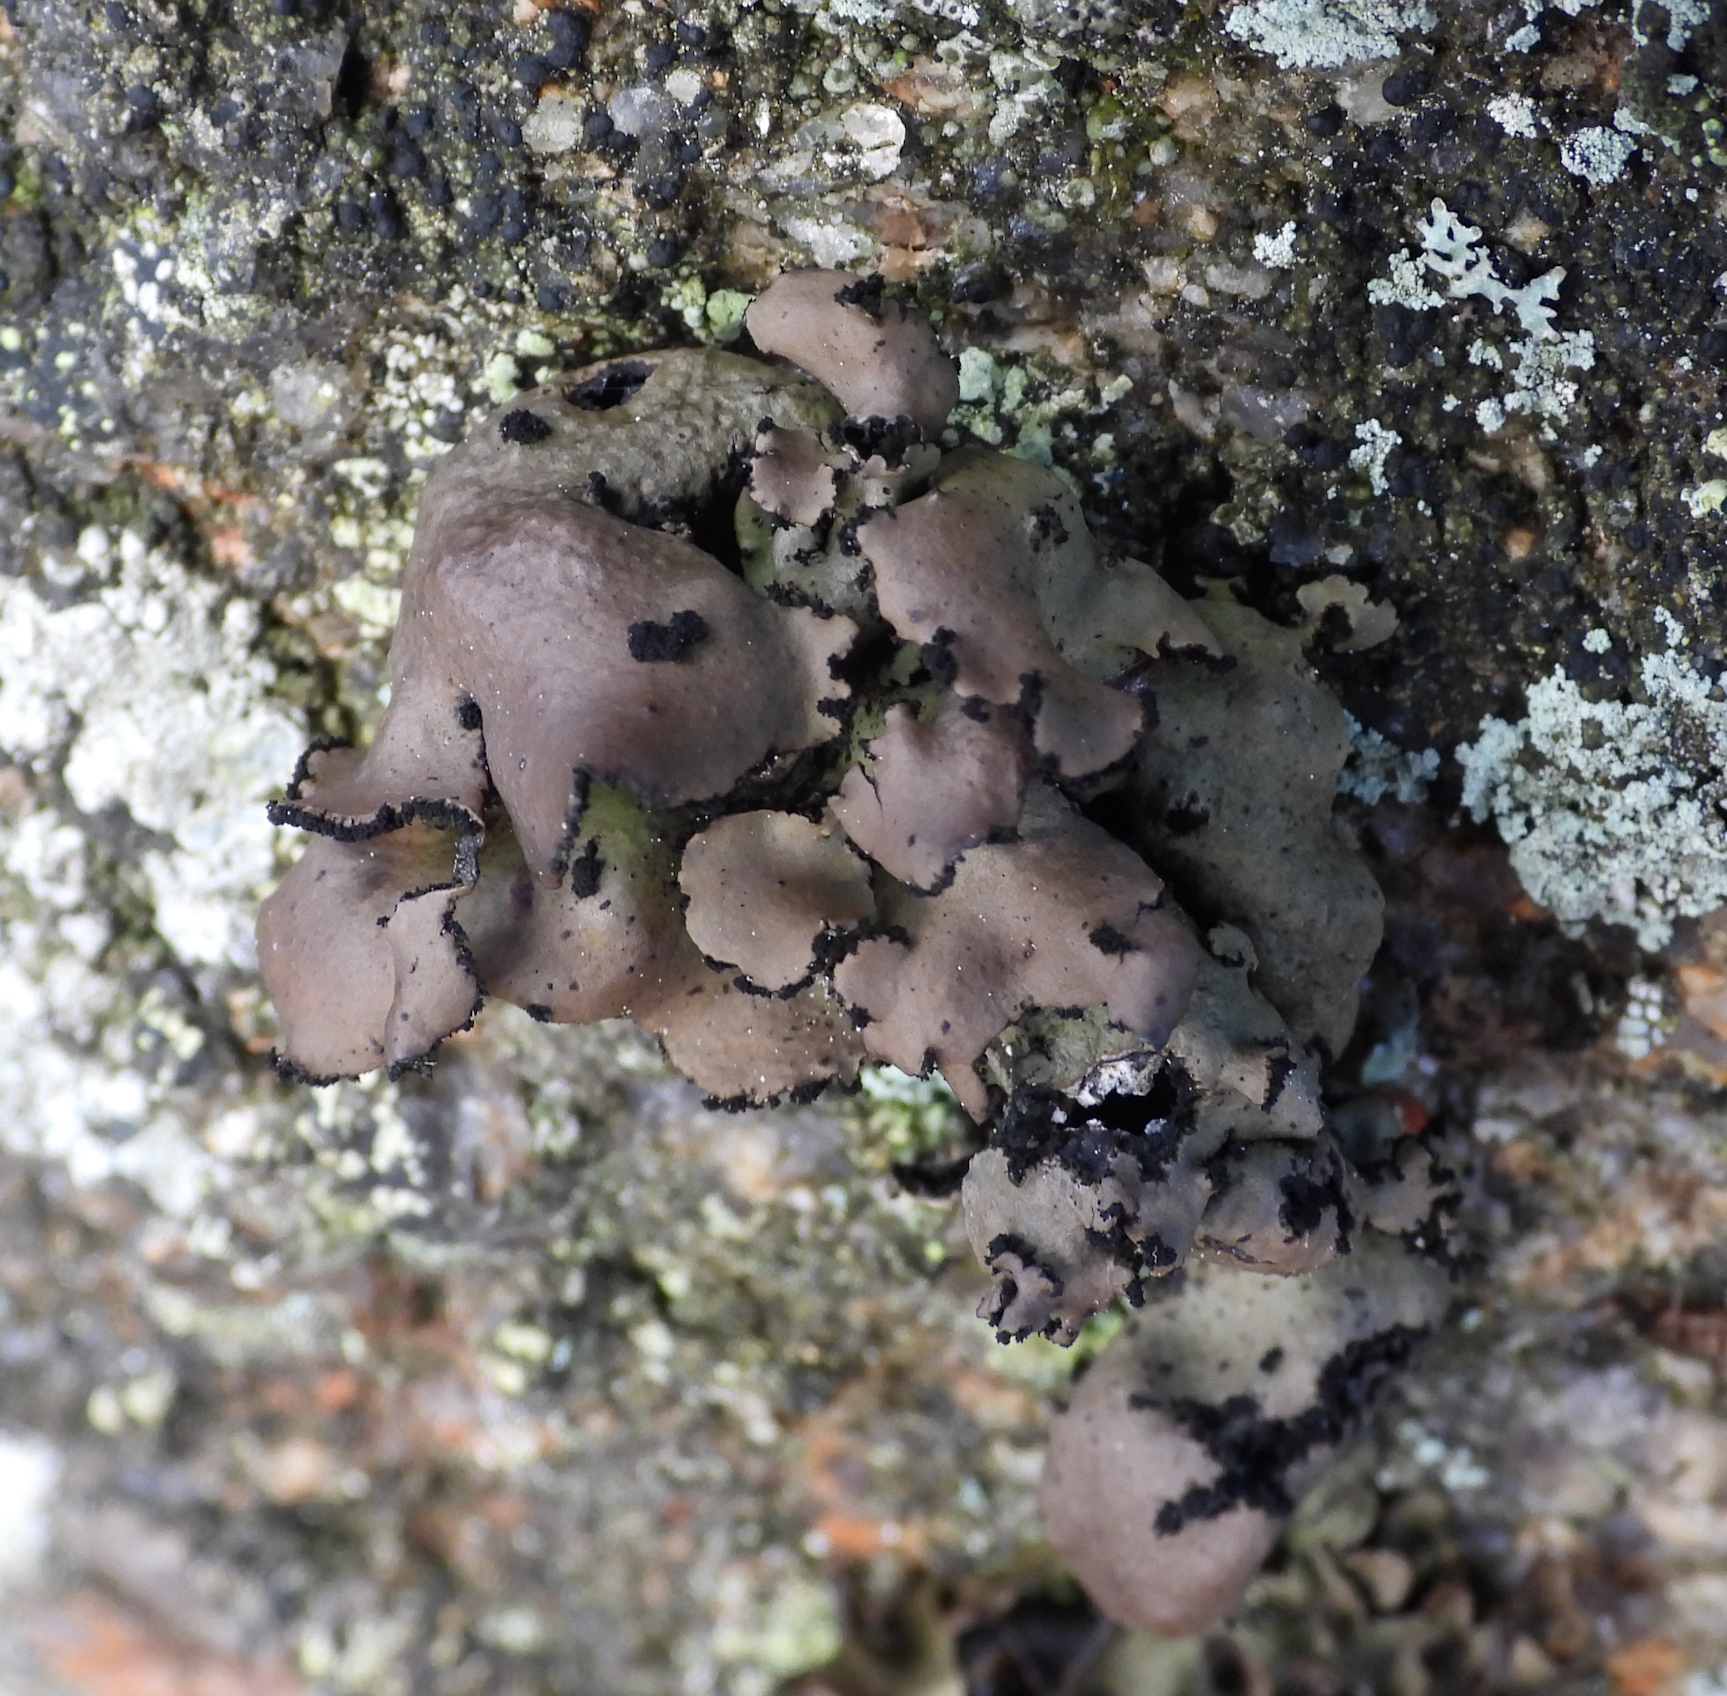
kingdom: Fungi
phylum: Ascomycota
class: Lecanoromycetes
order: Umbilicariales
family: Umbilicariaceae
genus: Umbilicaria
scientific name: Umbilicaria polyrrhiza
